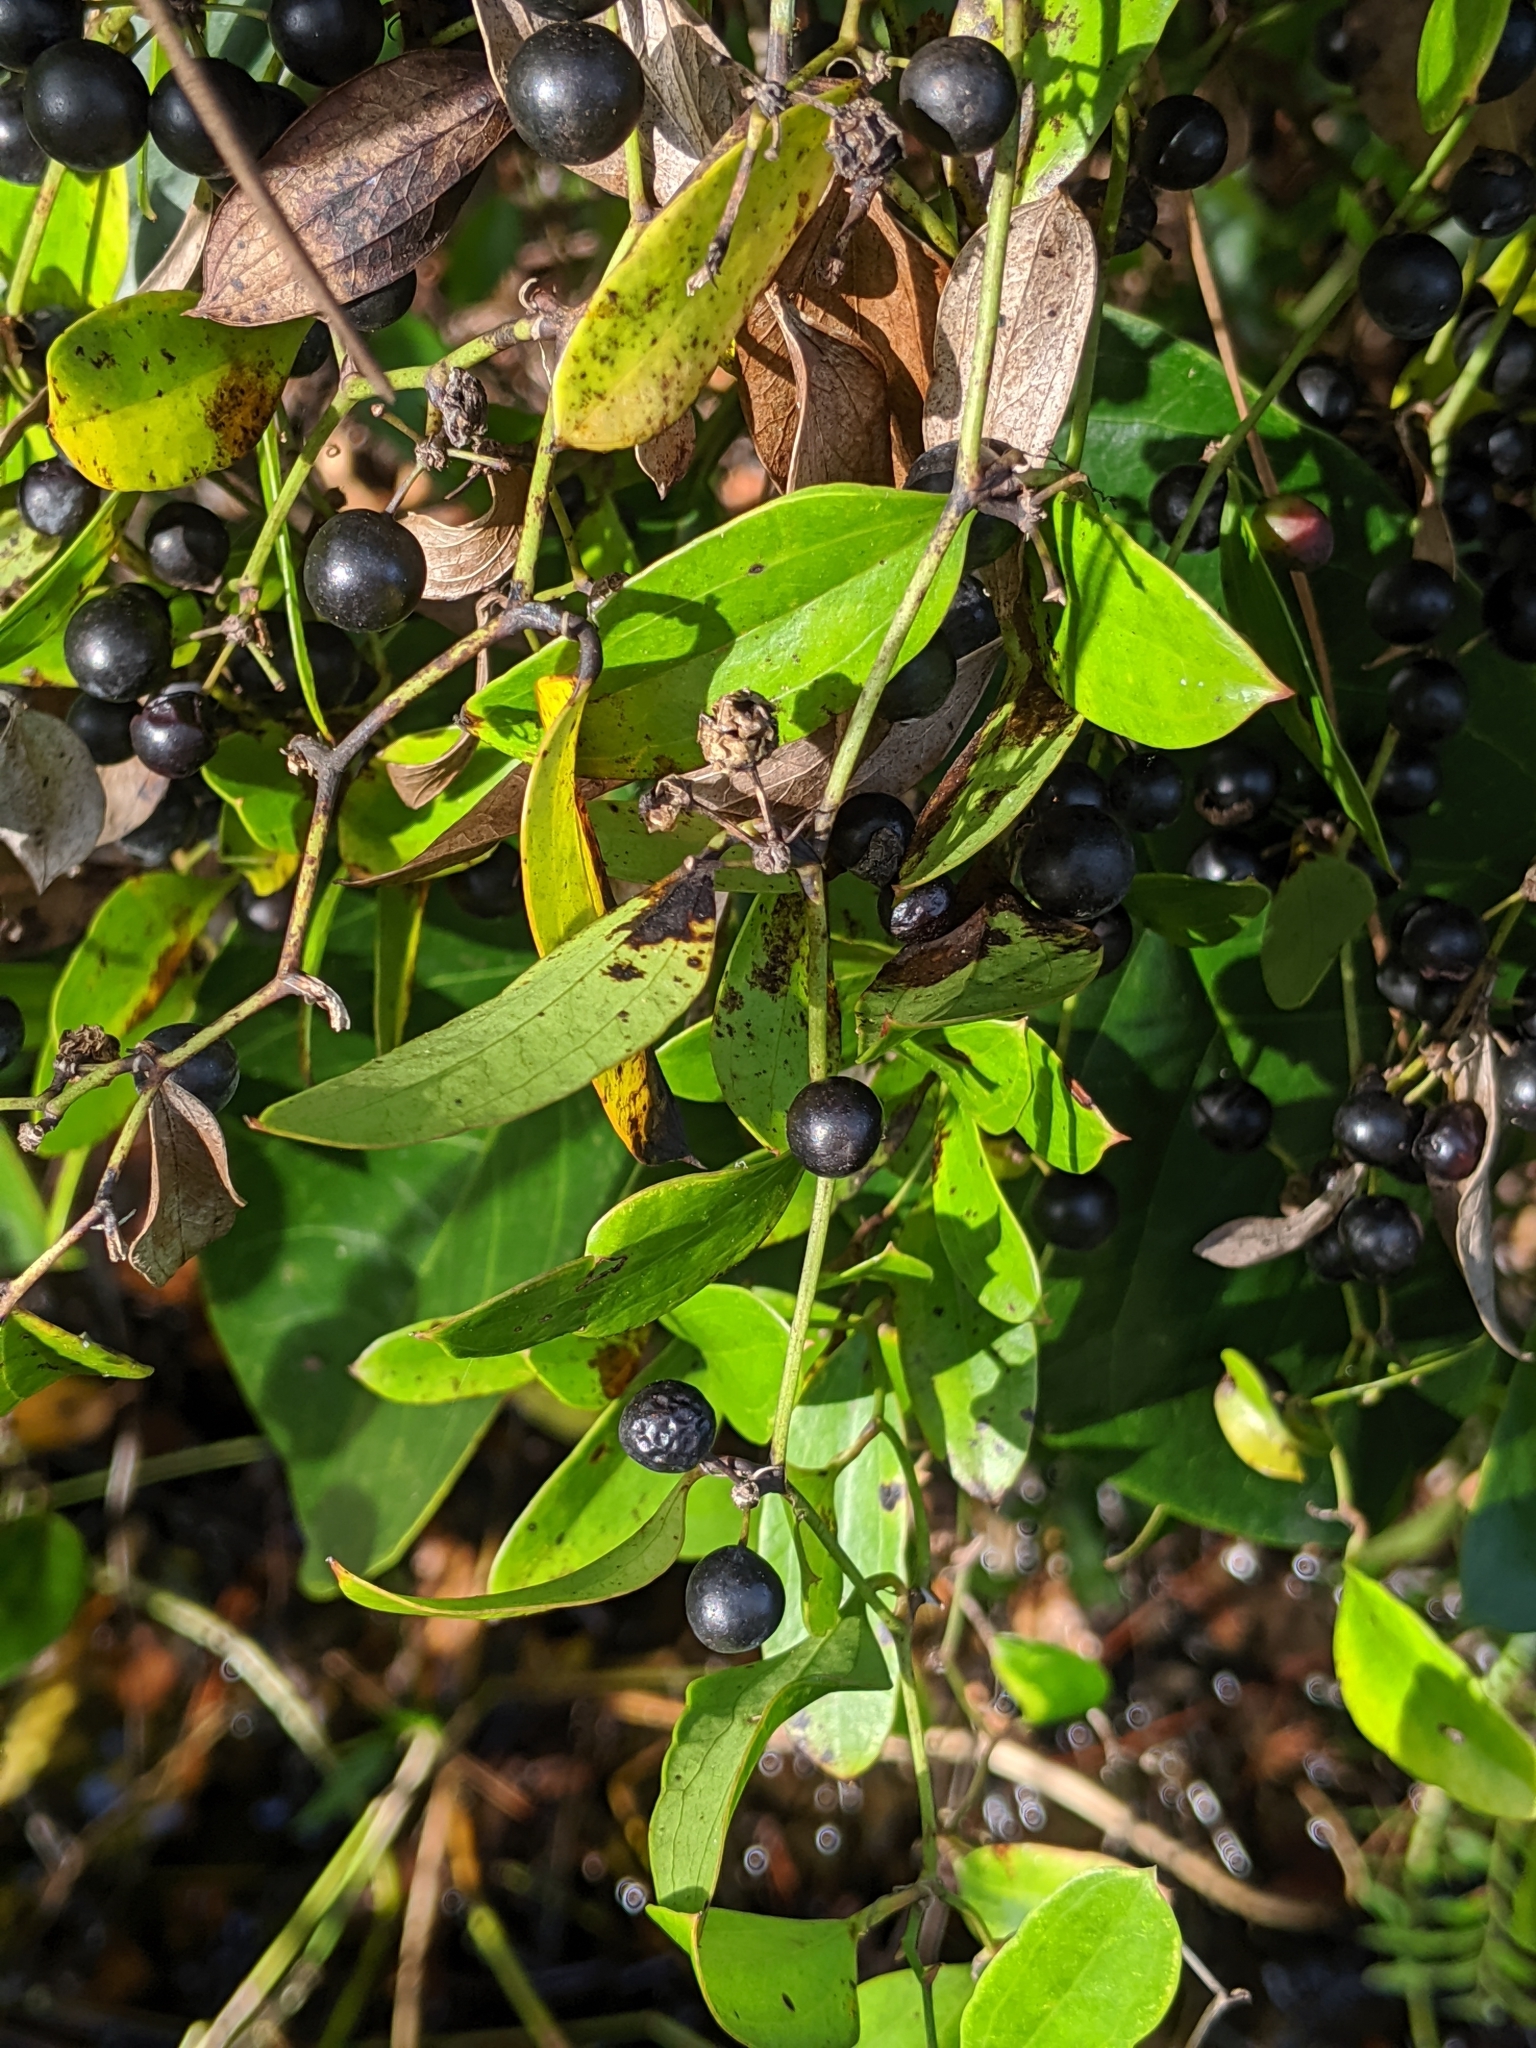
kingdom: Plantae
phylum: Tracheophyta
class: Liliopsida
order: Liliales
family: Smilacaceae
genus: Smilax
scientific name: Smilax auriculata
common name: Wild bamboo
